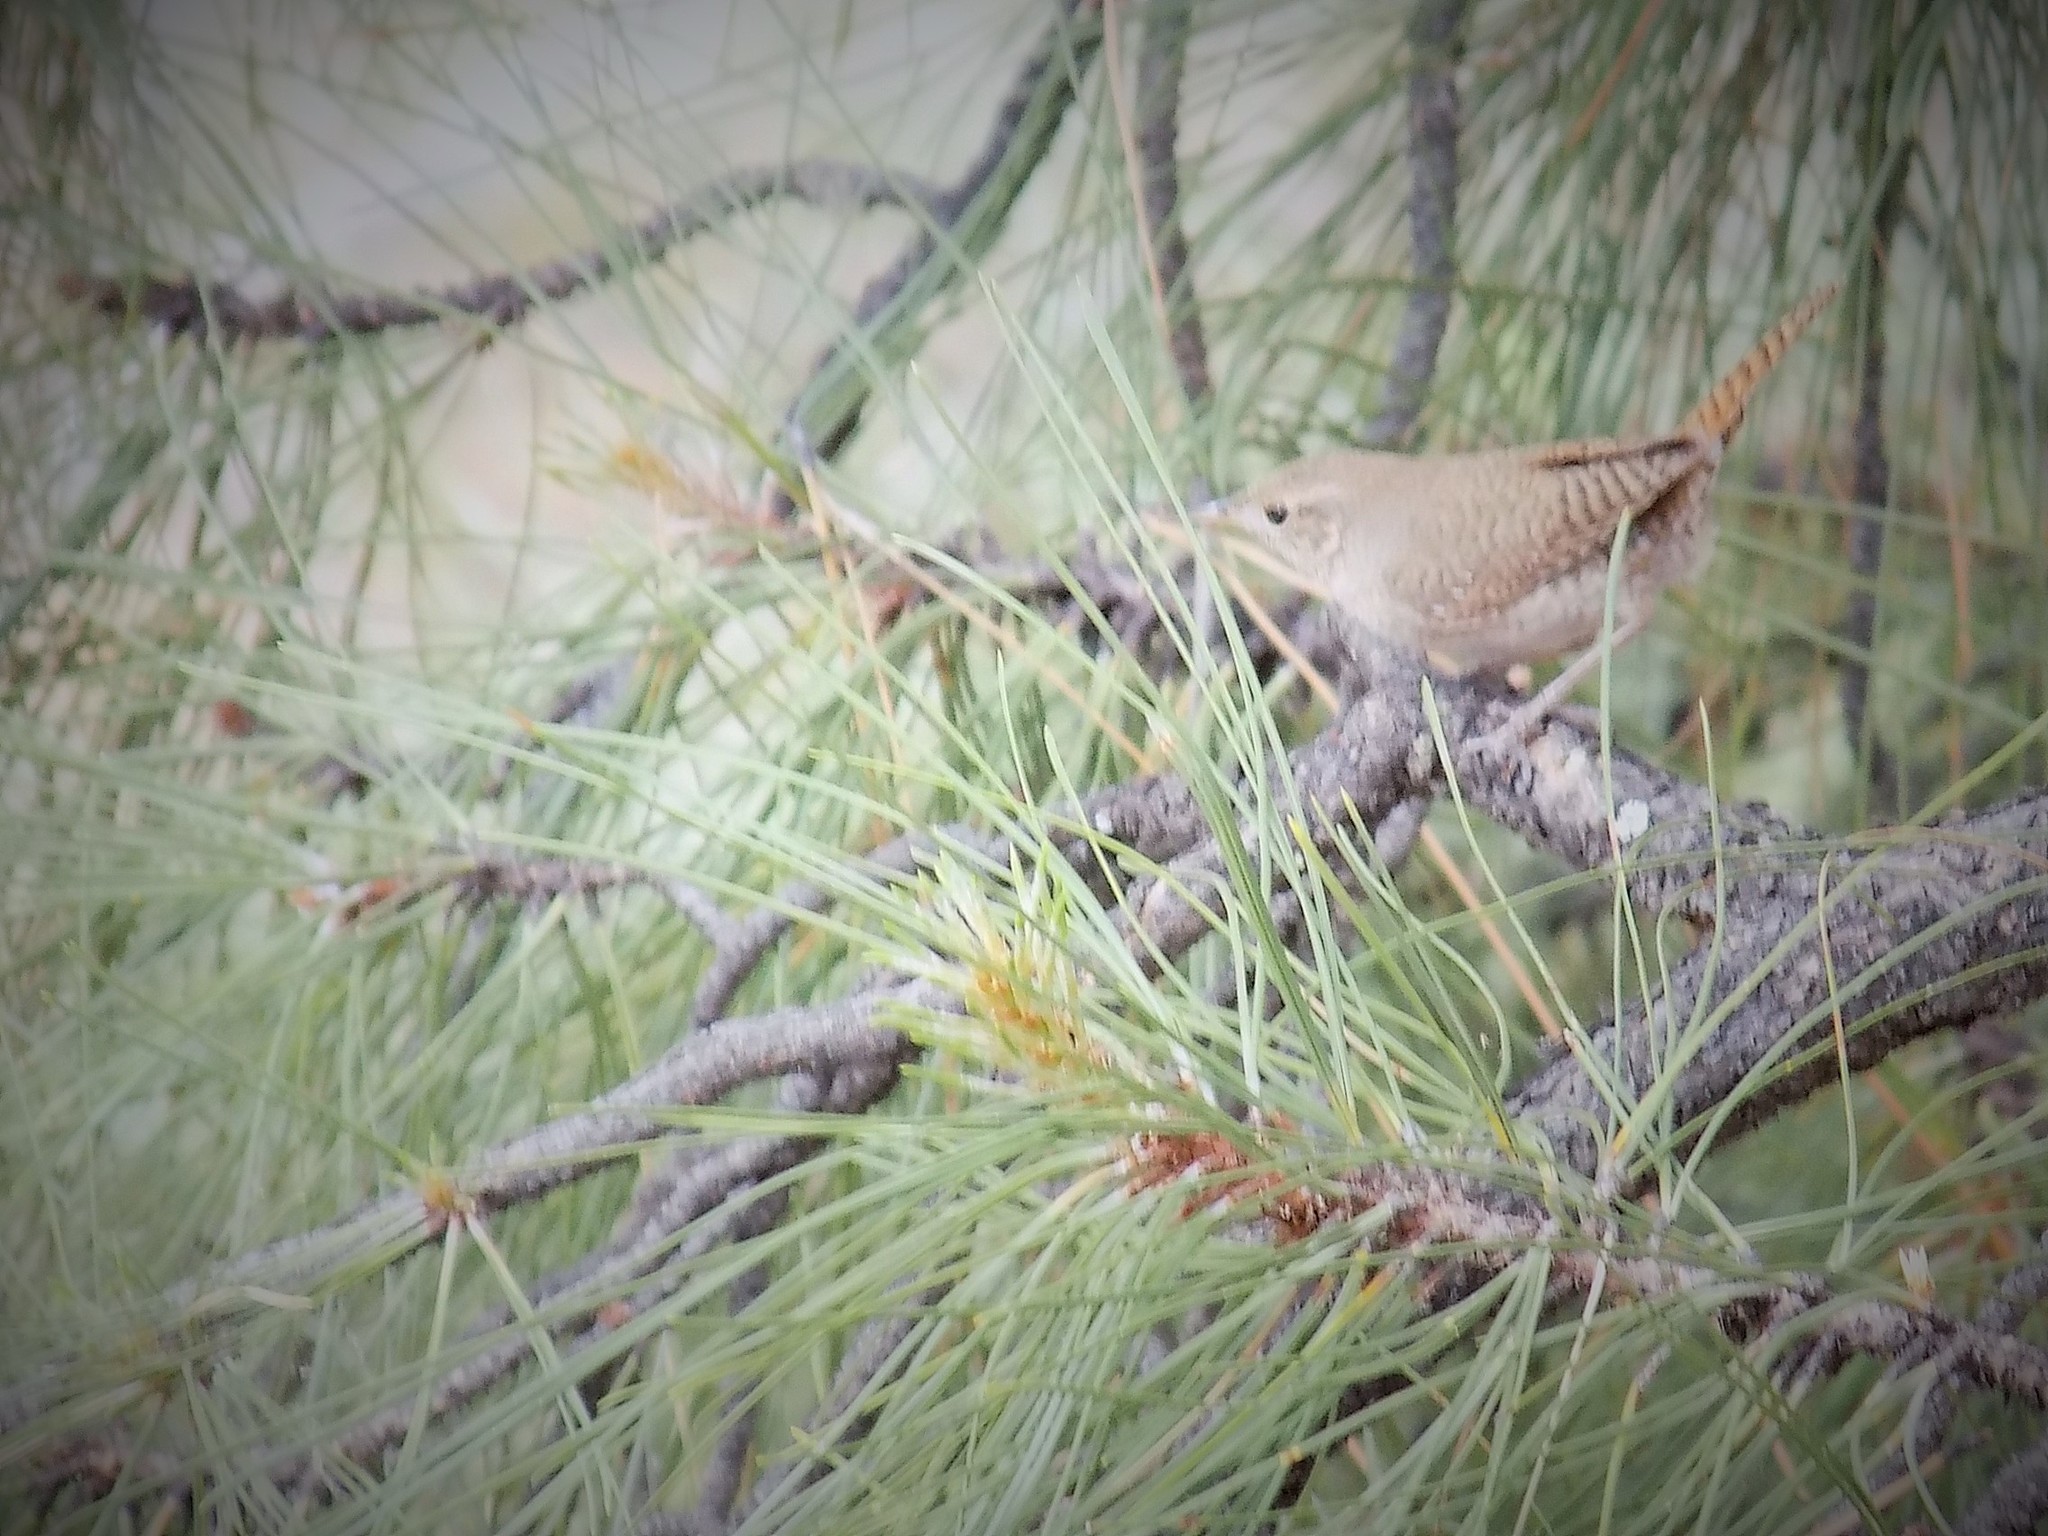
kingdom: Animalia
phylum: Chordata
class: Aves
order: Passeriformes
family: Troglodytidae
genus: Troglodytes
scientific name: Troglodytes aedon
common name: House wren
